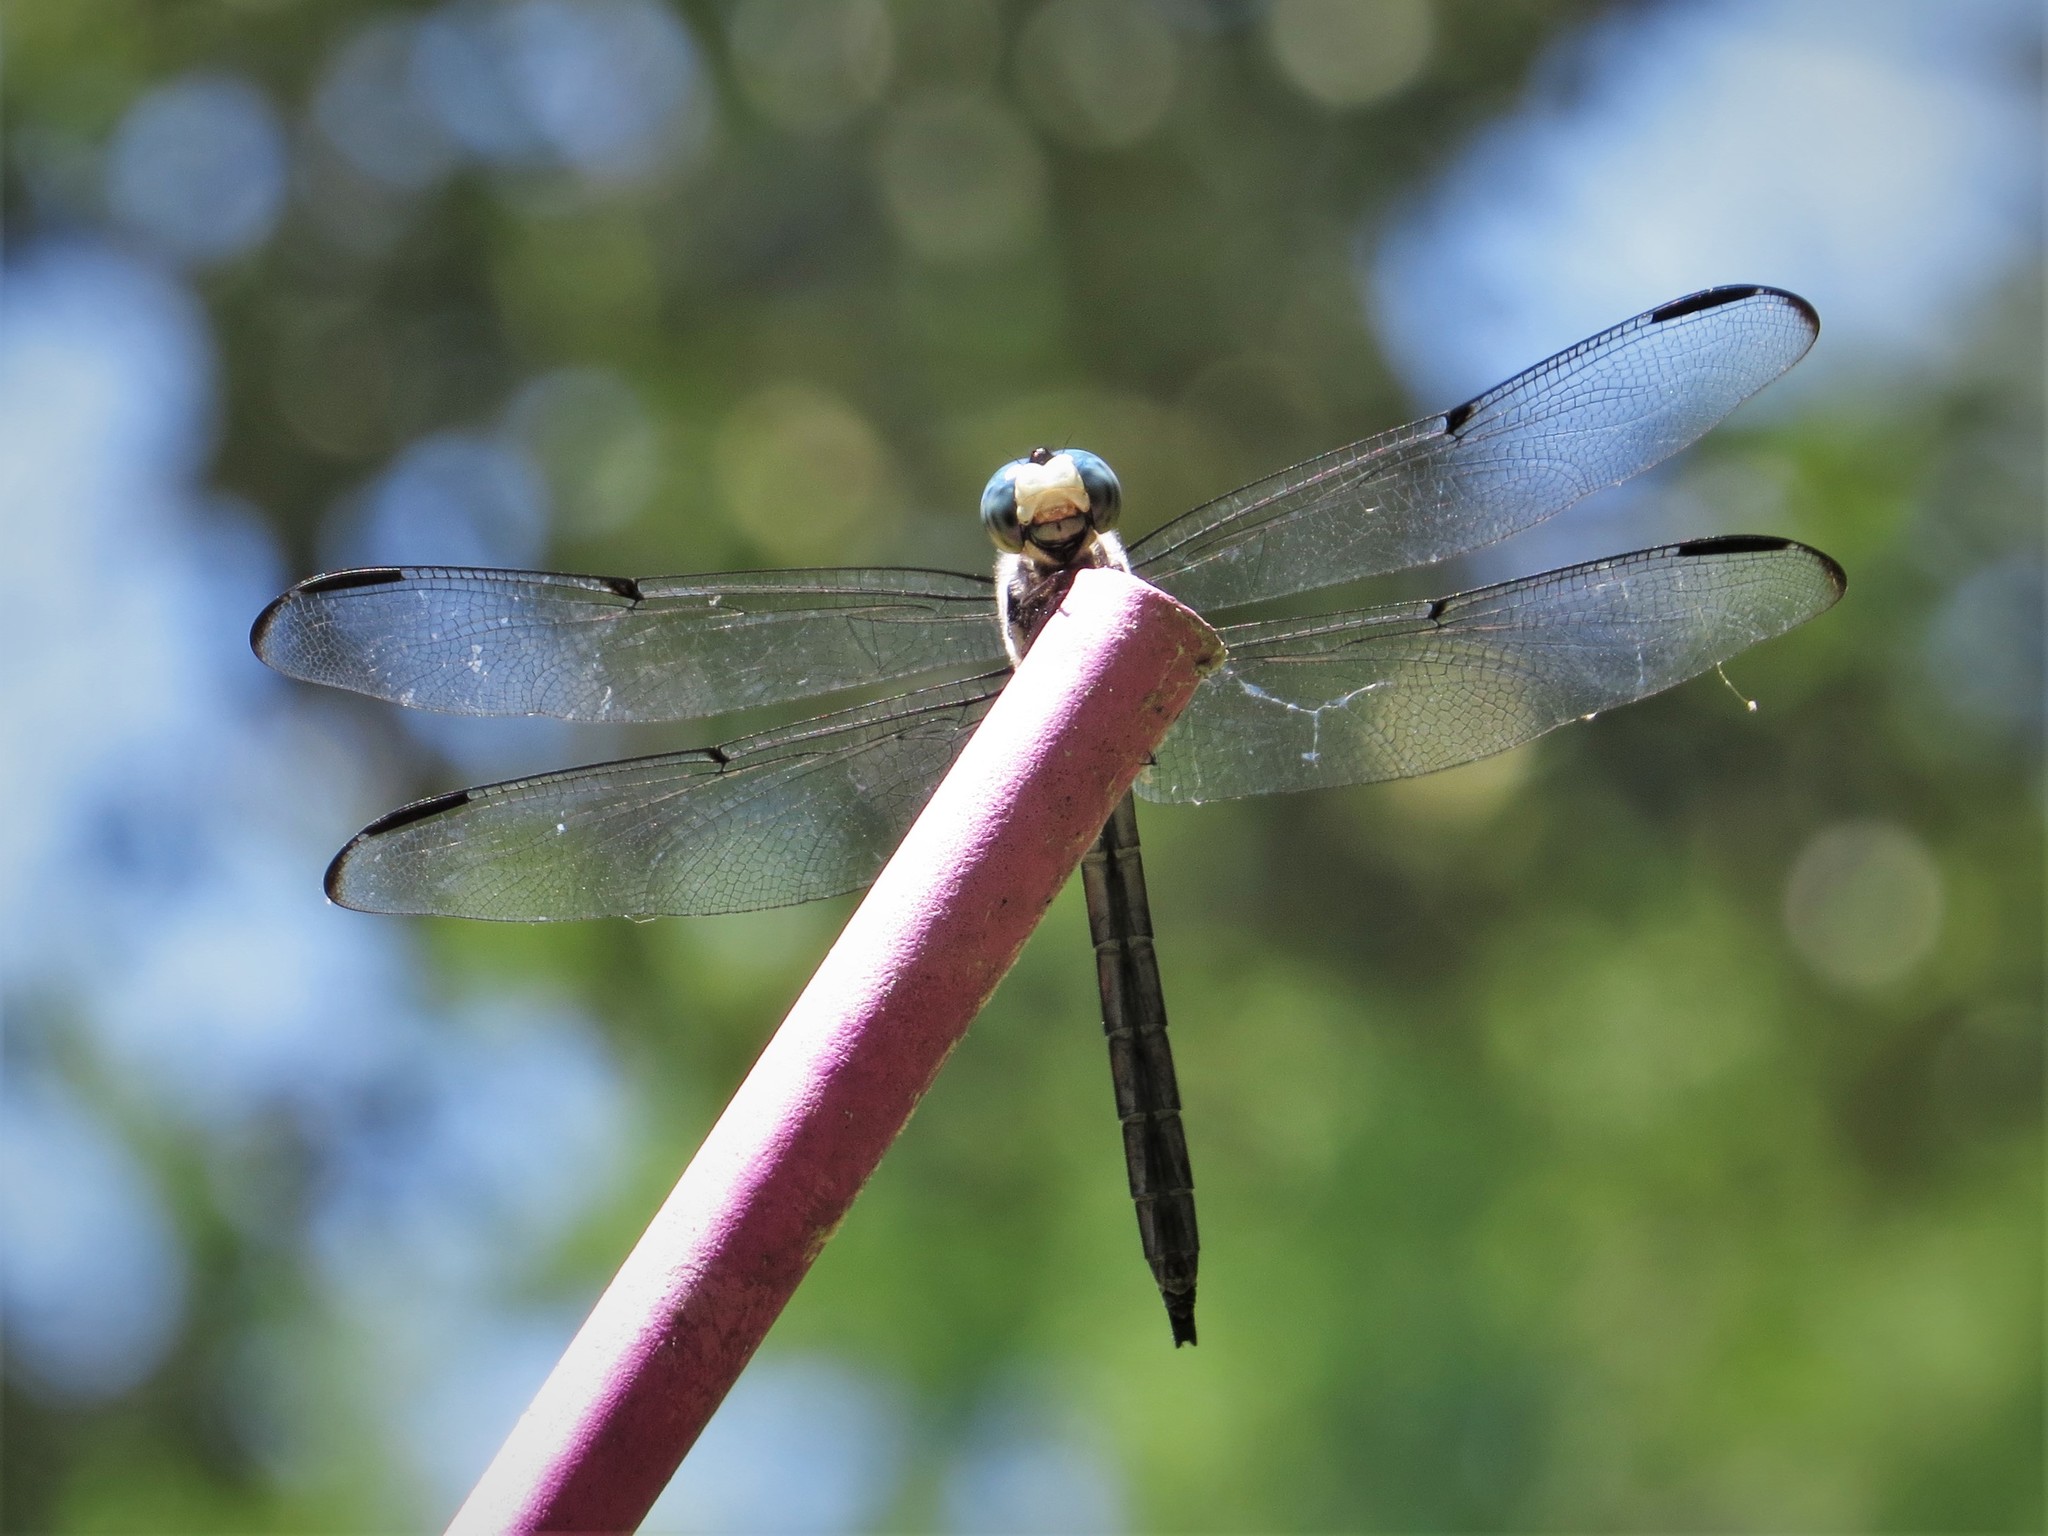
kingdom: Animalia
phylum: Arthropoda
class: Insecta
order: Odonata
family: Libellulidae
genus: Libellula
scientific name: Libellula vibrans
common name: Great blue skimmer
